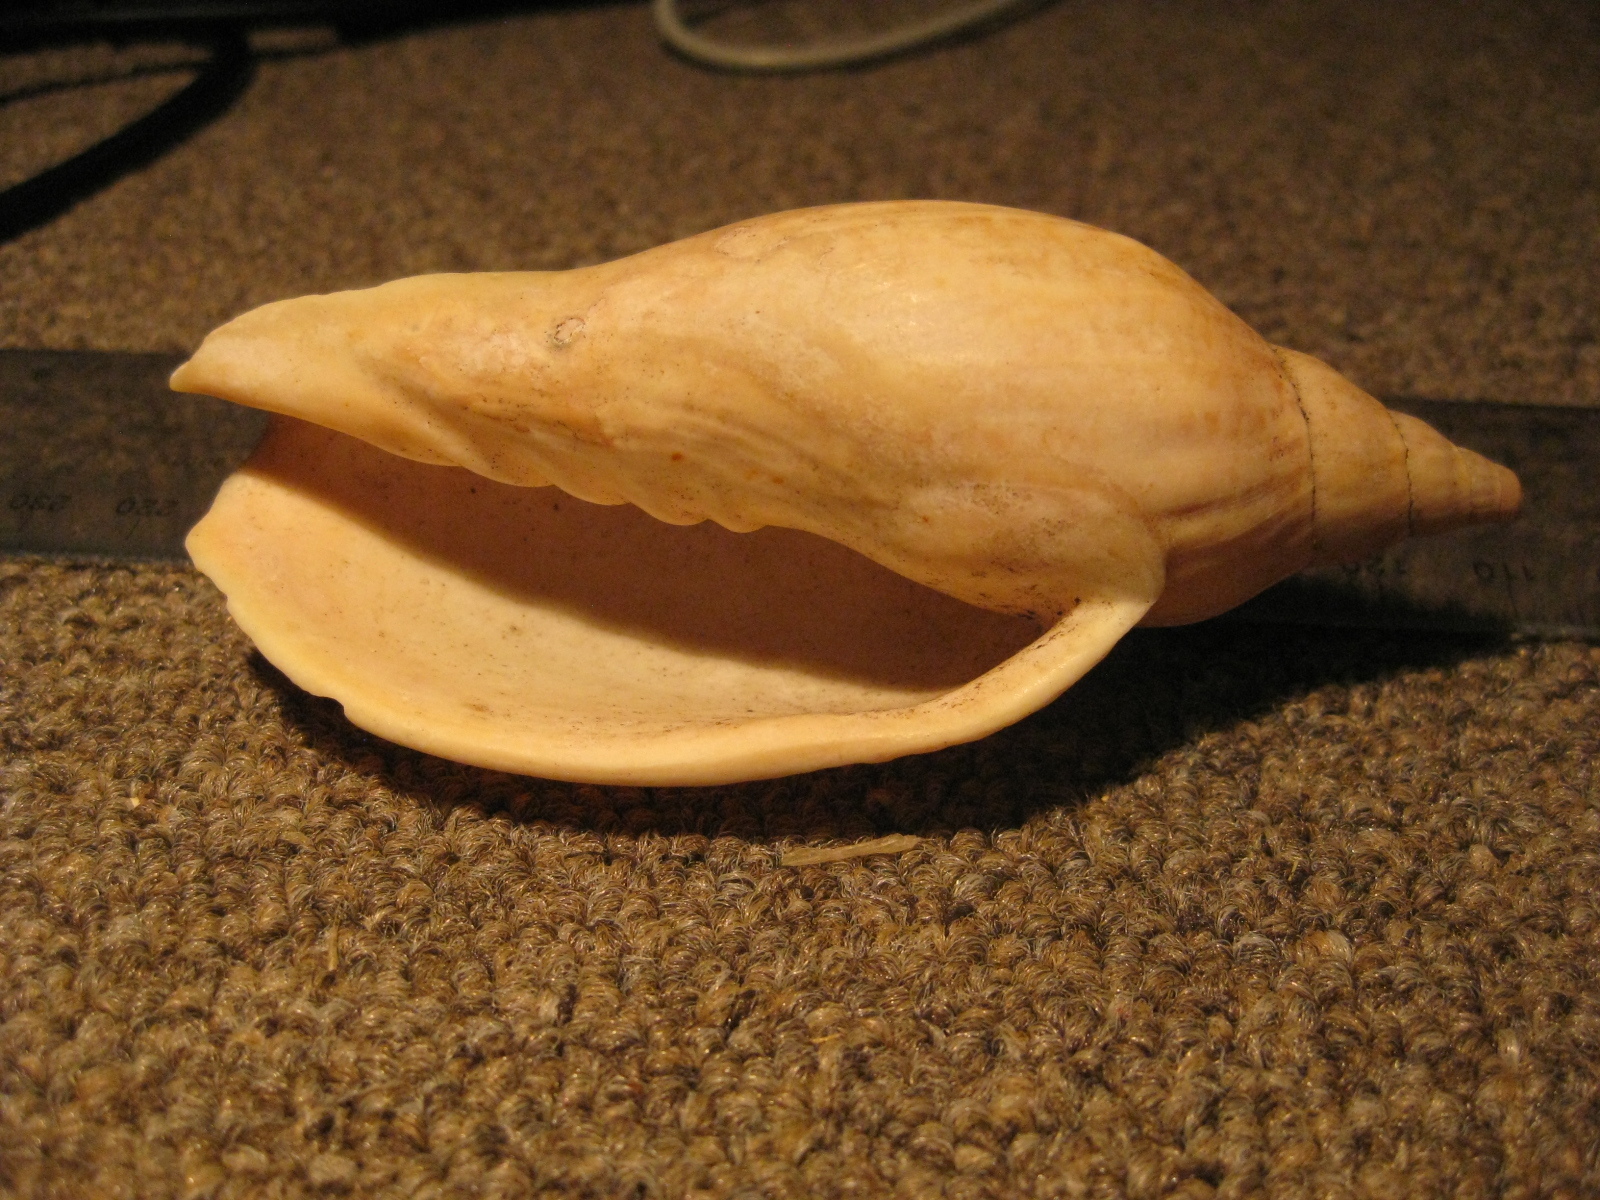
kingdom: Animalia
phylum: Mollusca
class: Gastropoda
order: Neogastropoda
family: Volutidae
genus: Alcithoe
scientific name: Alcithoe arabica
